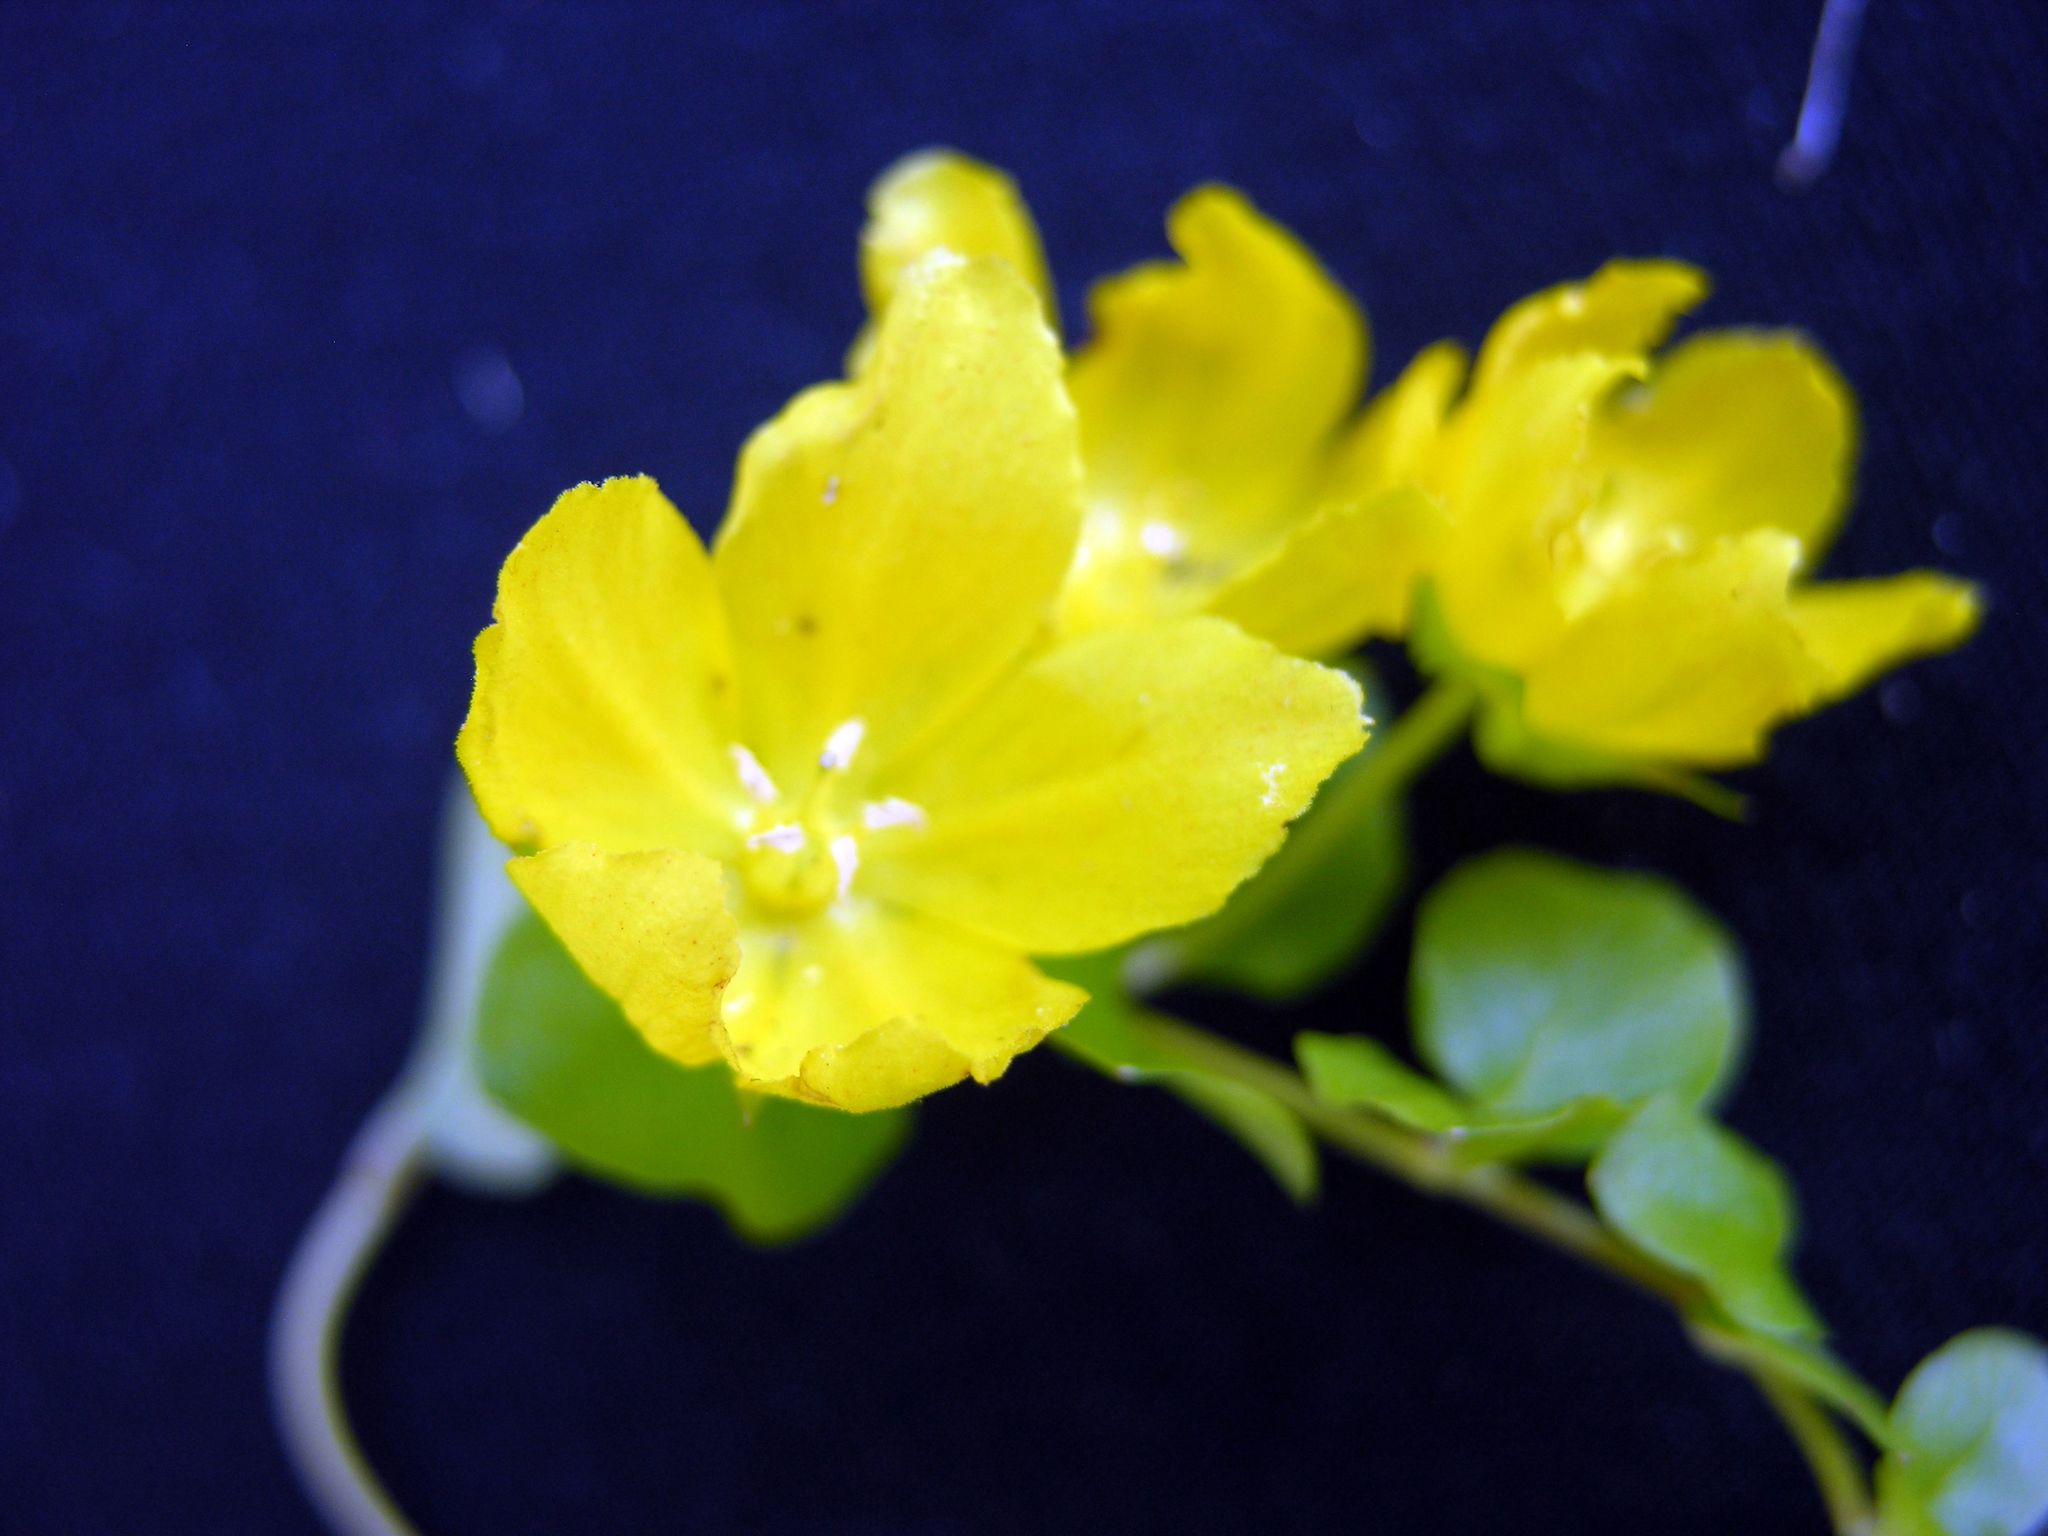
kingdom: Plantae
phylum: Tracheophyta
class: Magnoliopsida
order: Ericales
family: Primulaceae
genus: Lysimachia
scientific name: Lysimachia nummularia
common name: Moneywort
